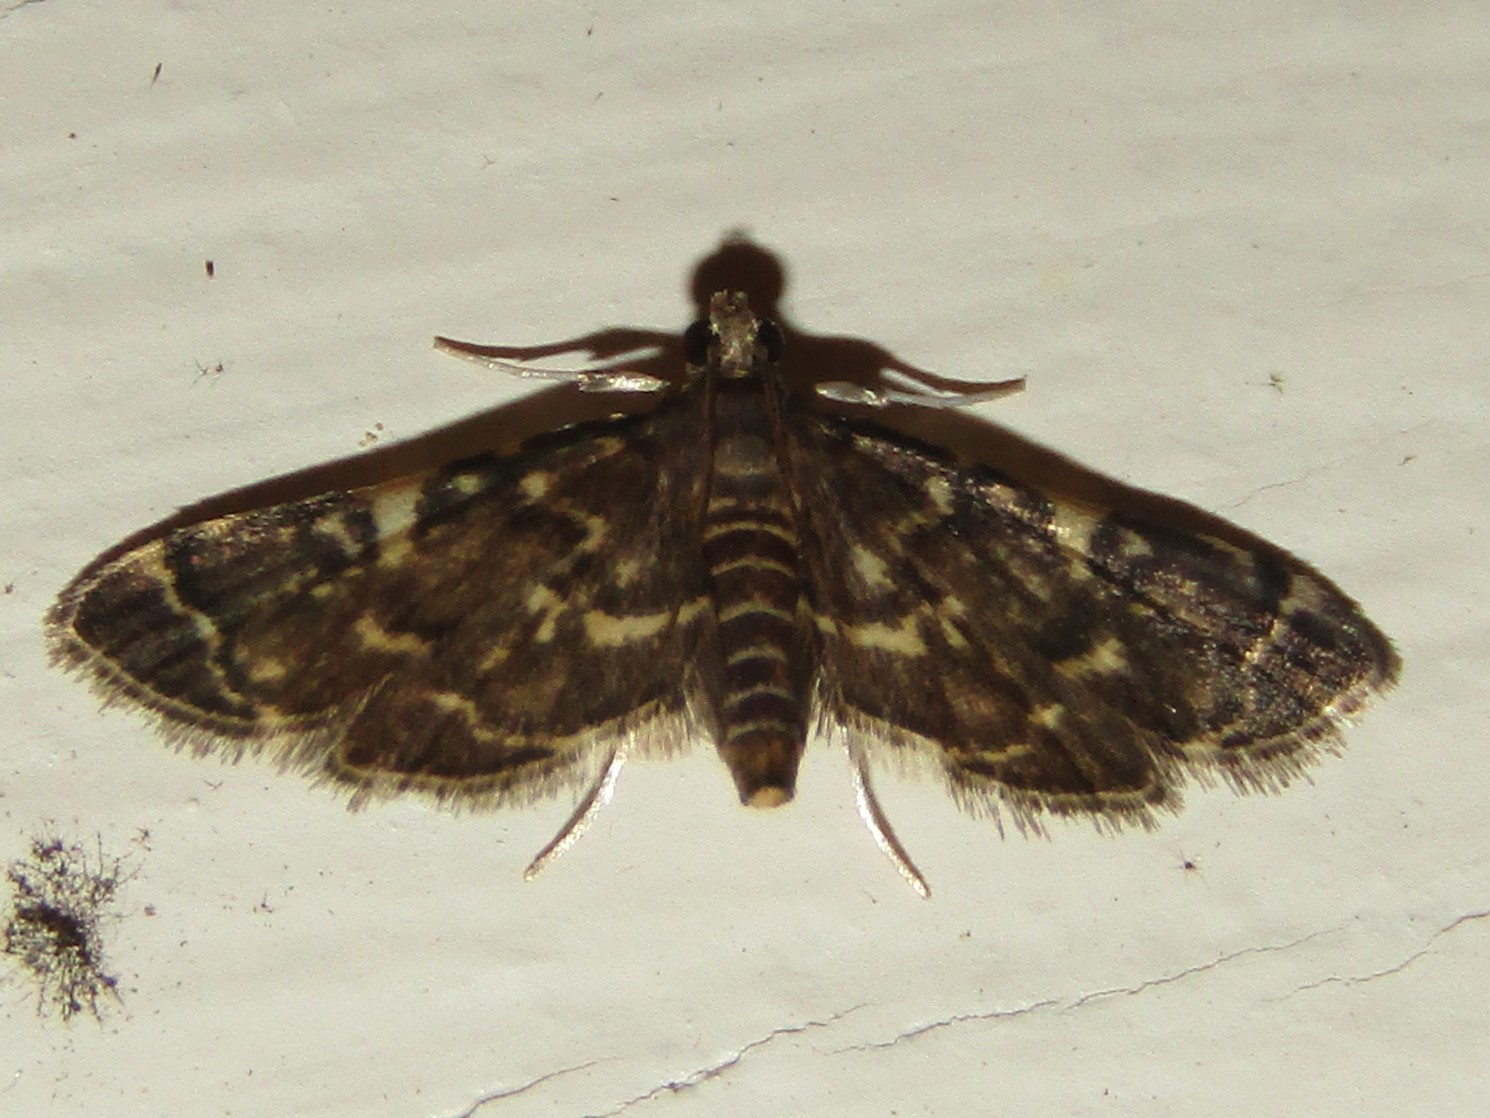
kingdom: Animalia
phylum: Arthropoda
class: Insecta
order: Lepidoptera
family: Crambidae
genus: Anageshna
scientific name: Anageshna primordialis
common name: Yellow-spotted webworm moth
